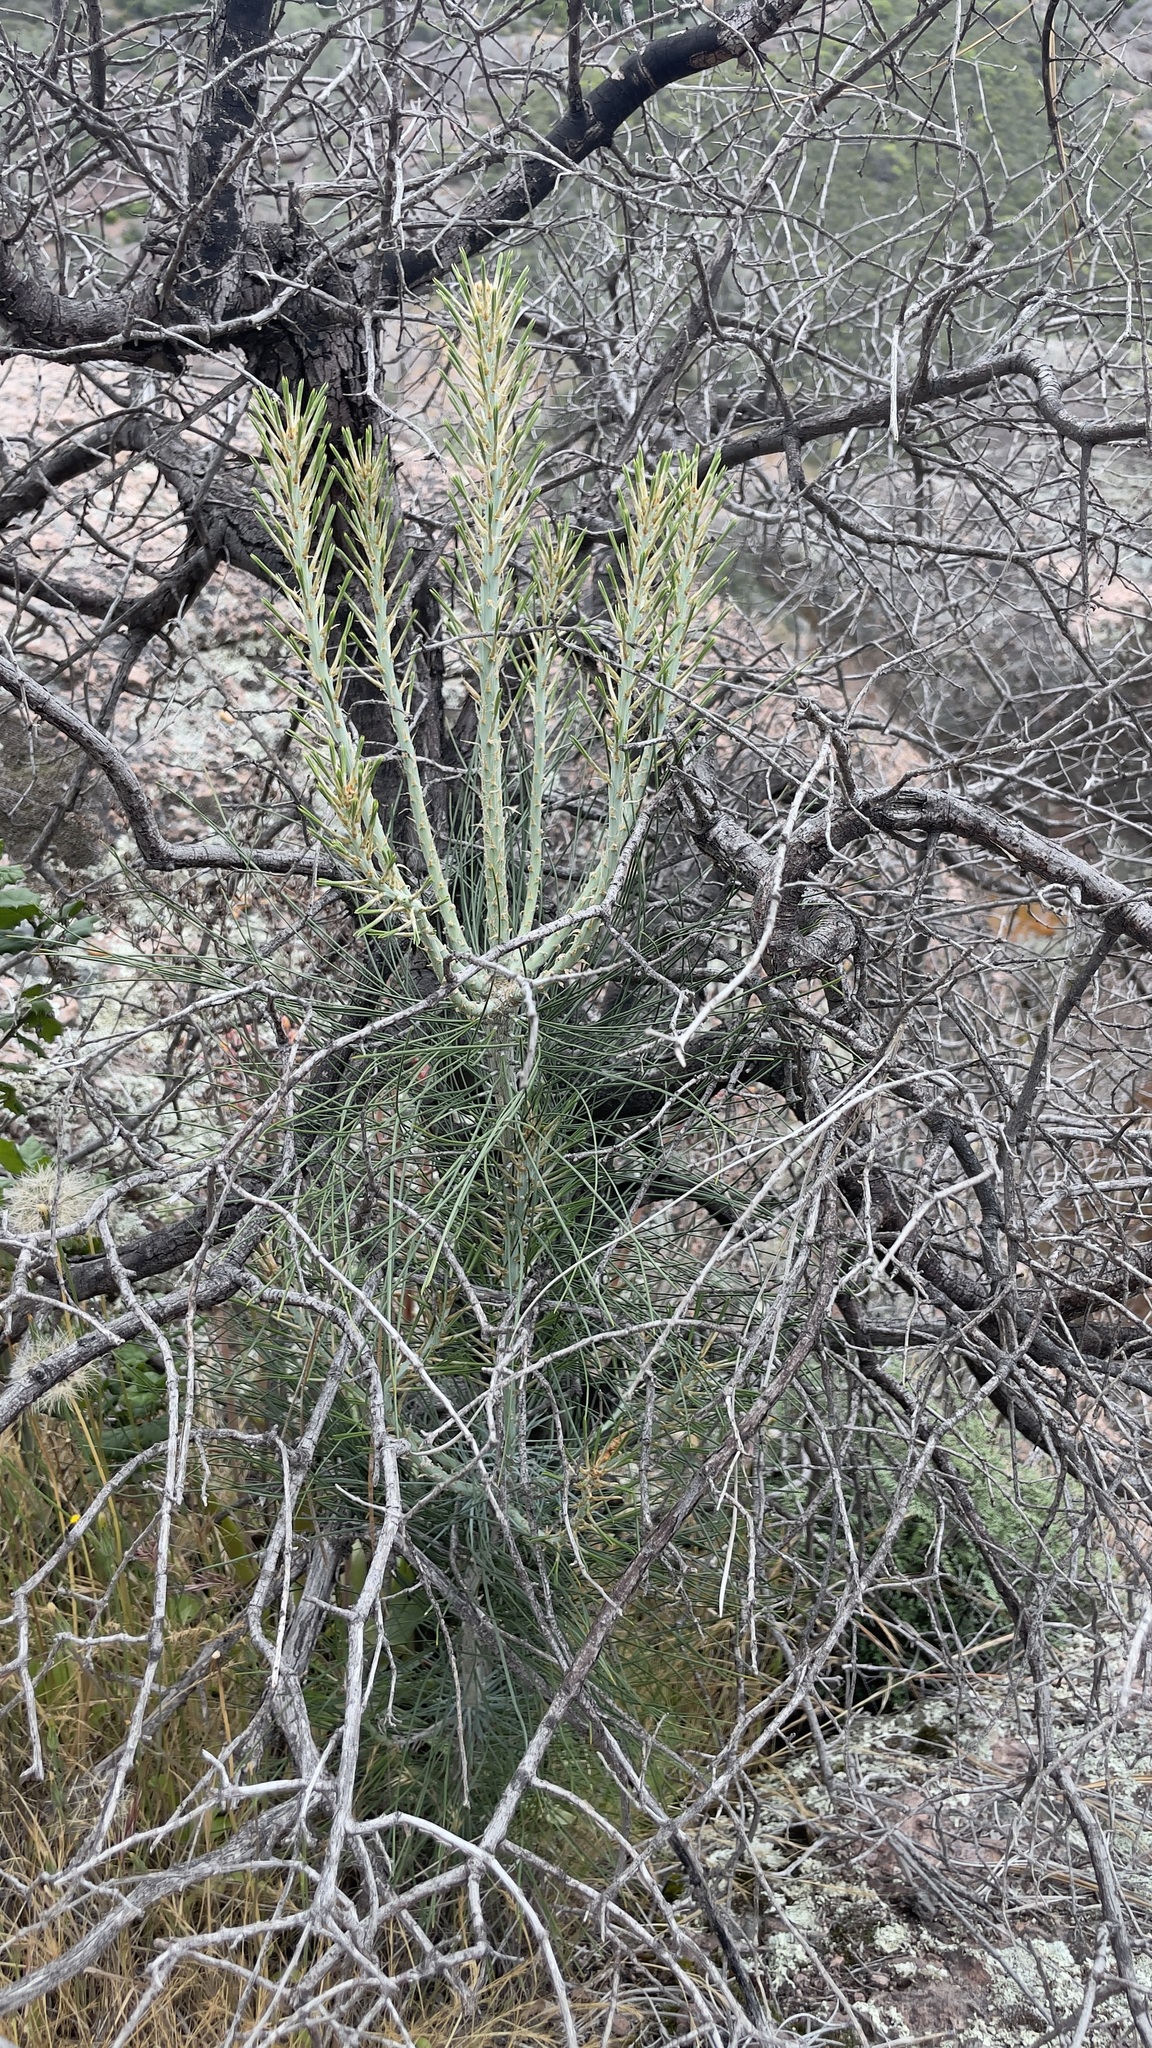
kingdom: Plantae
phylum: Tracheophyta
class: Pinopsida
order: Pinales
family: Pinaceae
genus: Pinus
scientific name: Pinus sabiniana
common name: Bull pine
